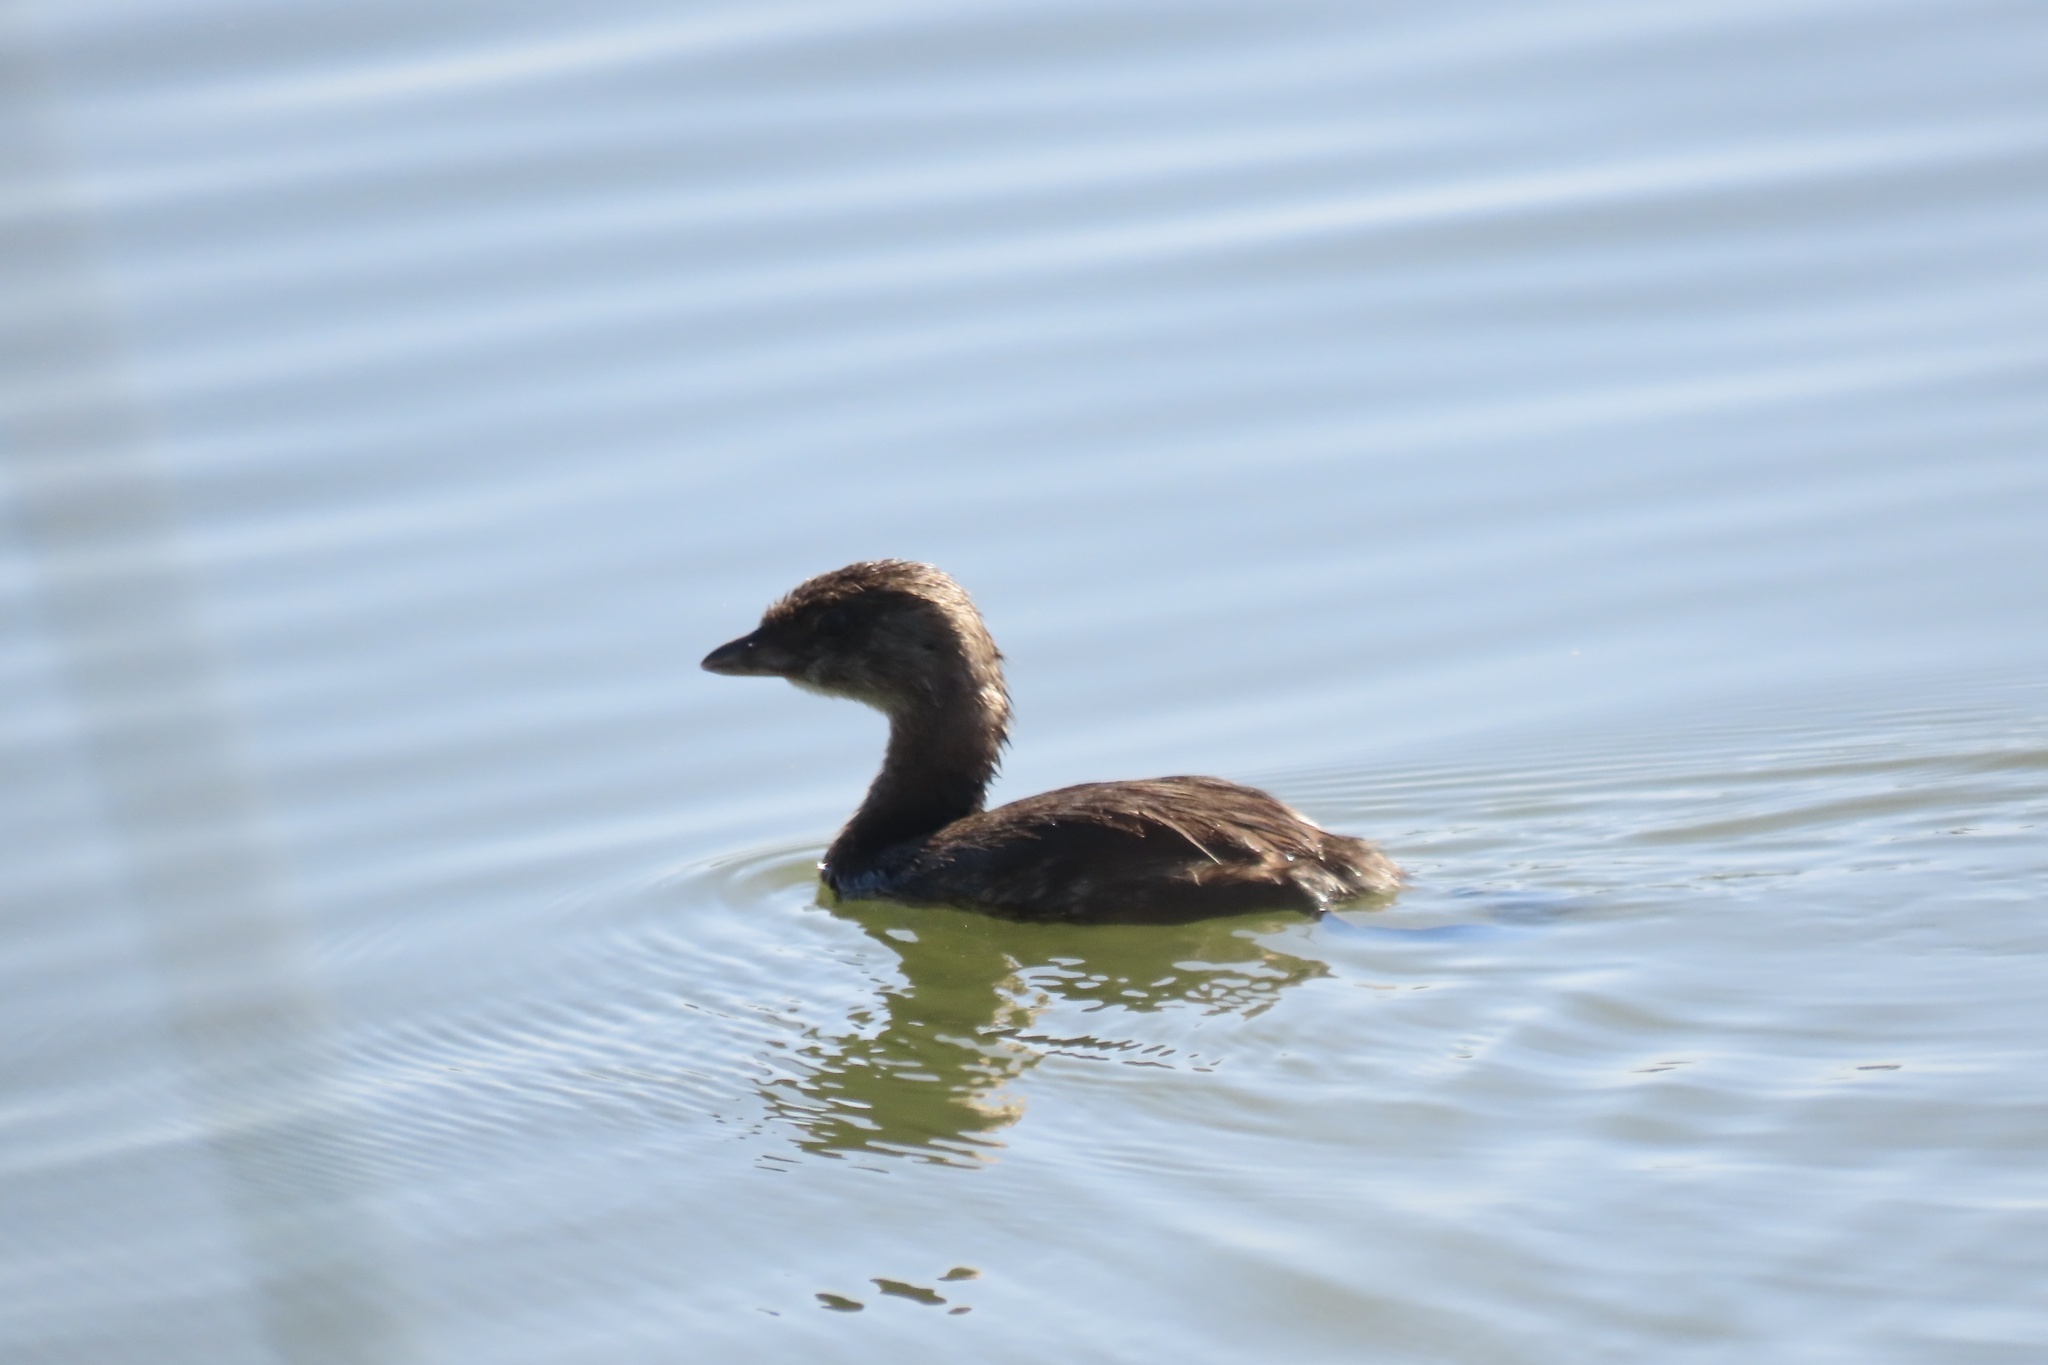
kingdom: Animalia
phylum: Chordata
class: Aves
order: Podicipediformes
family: Podicipedidae
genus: Podilymbus
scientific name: Podilymbus podiceps
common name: Pied-billed grebe
